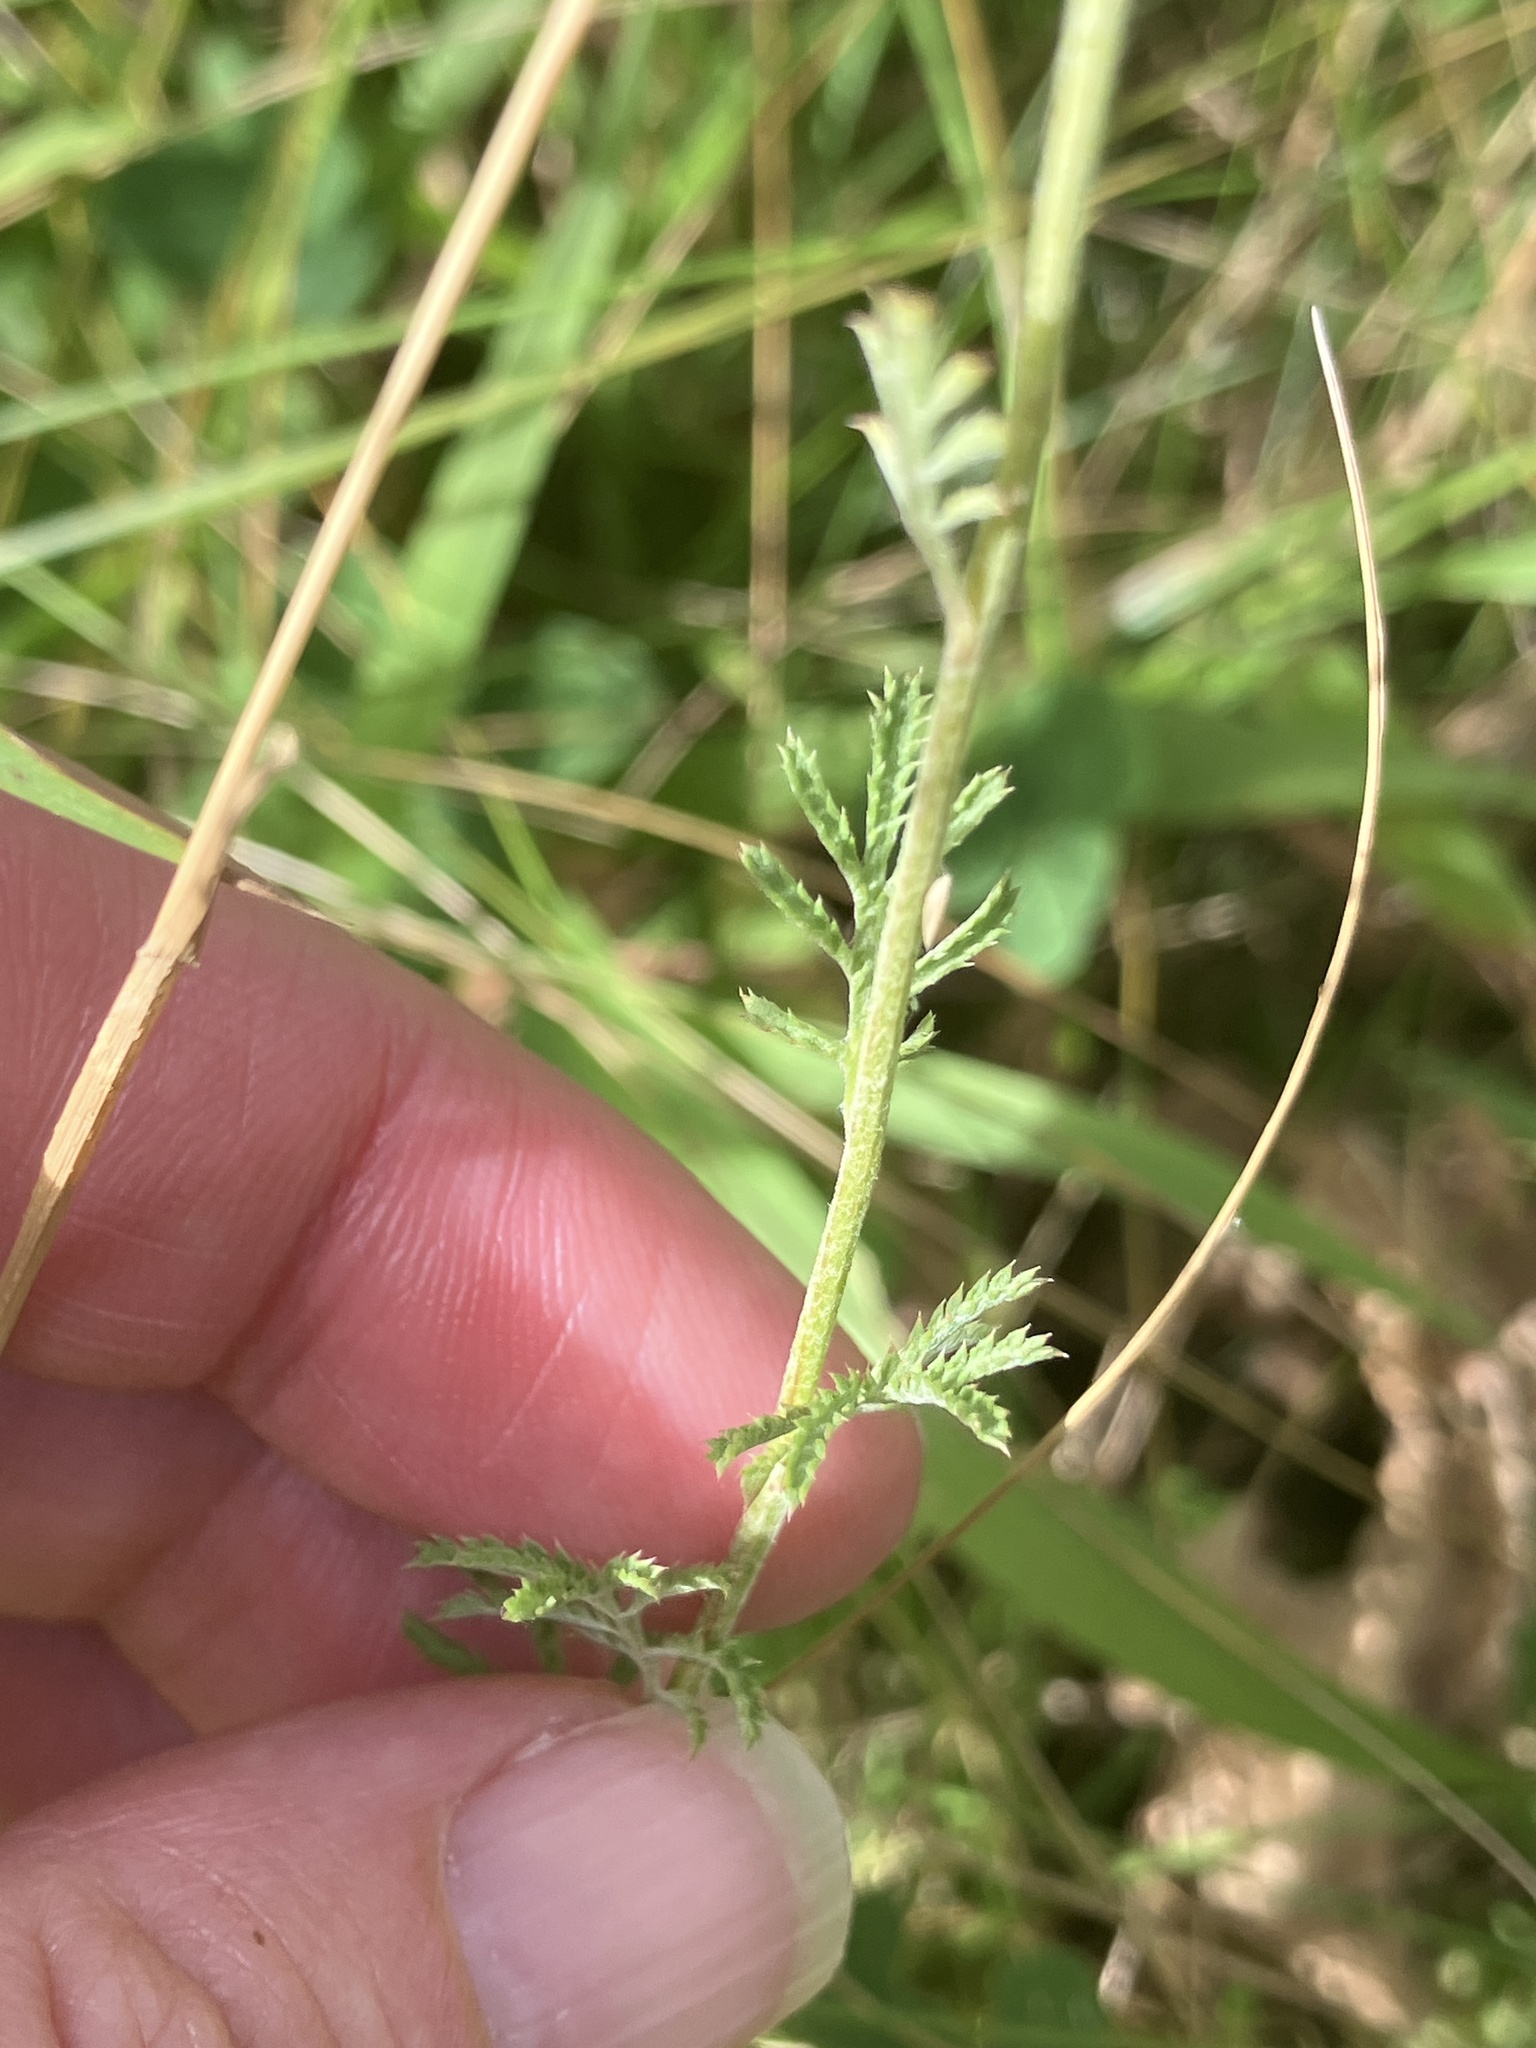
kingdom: Plantae
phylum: Tracheophyta
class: Magnoliopsida
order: Asterales
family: Asteraceae
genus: Cota
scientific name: Cota tinctoria
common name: Golden chamomile
